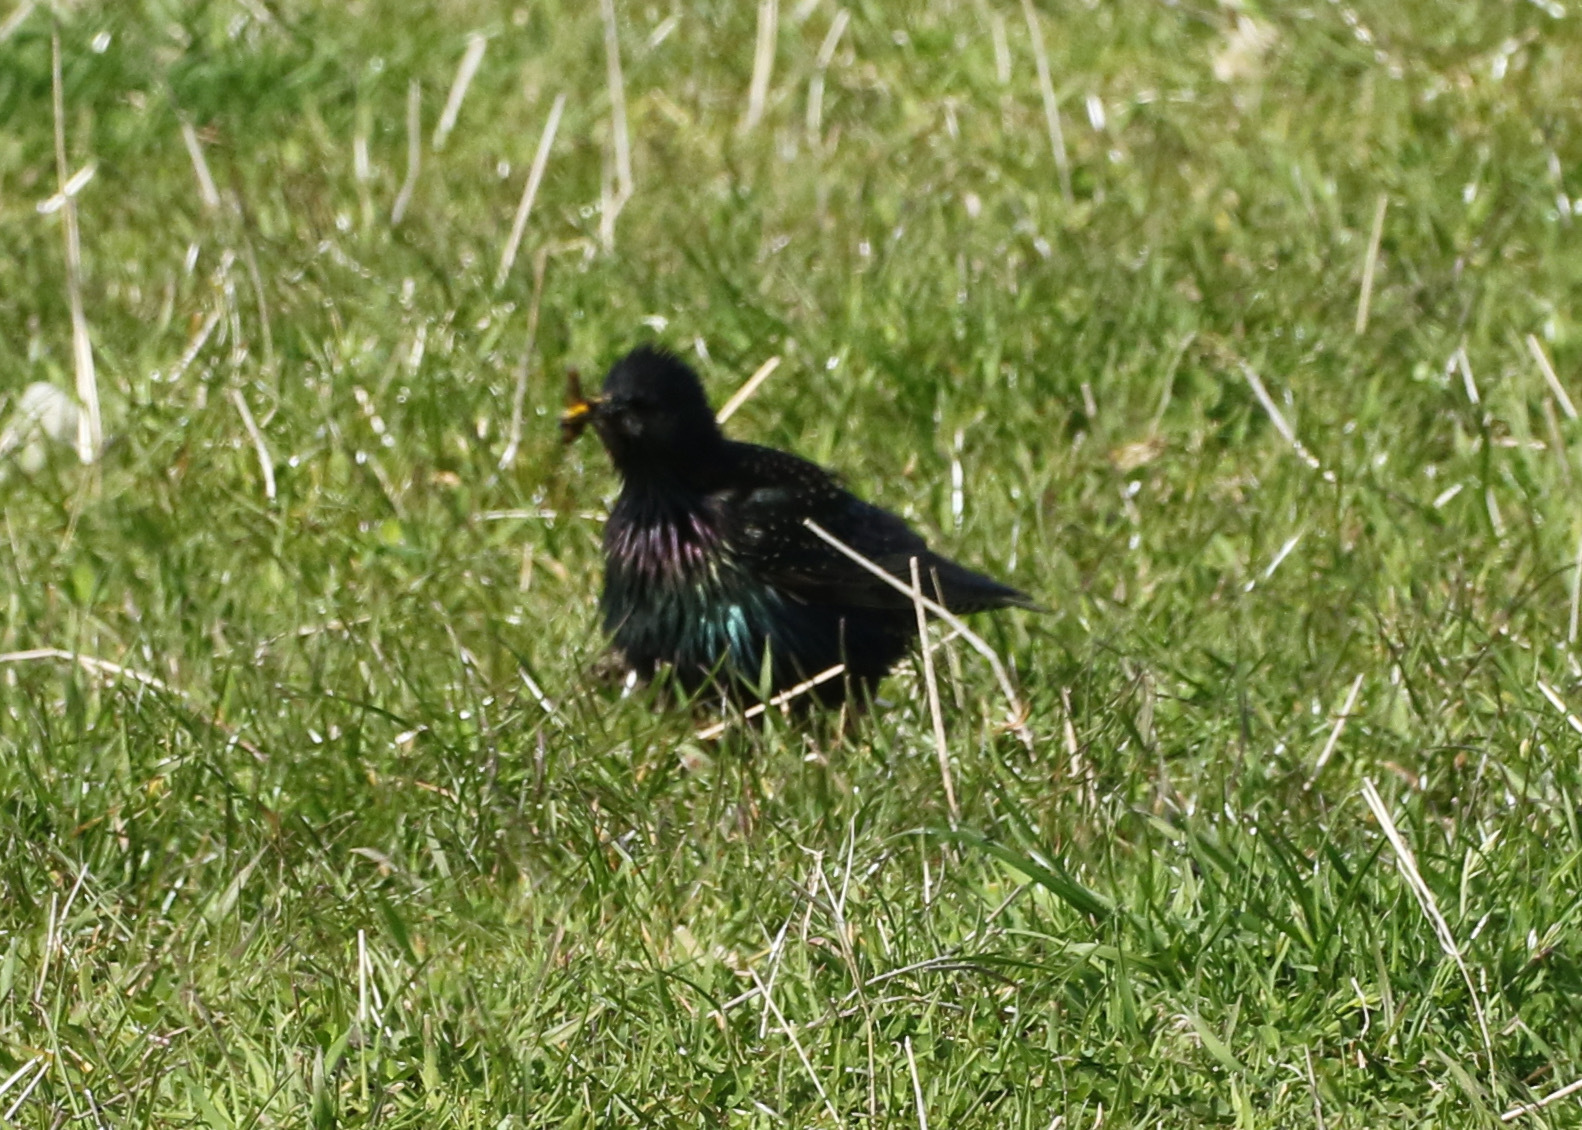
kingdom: Animalia
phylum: Chordata
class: Aves
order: Passeriformes
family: Sturnidae
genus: Sturnus
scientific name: Sturnus vulgaris
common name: Common starling
